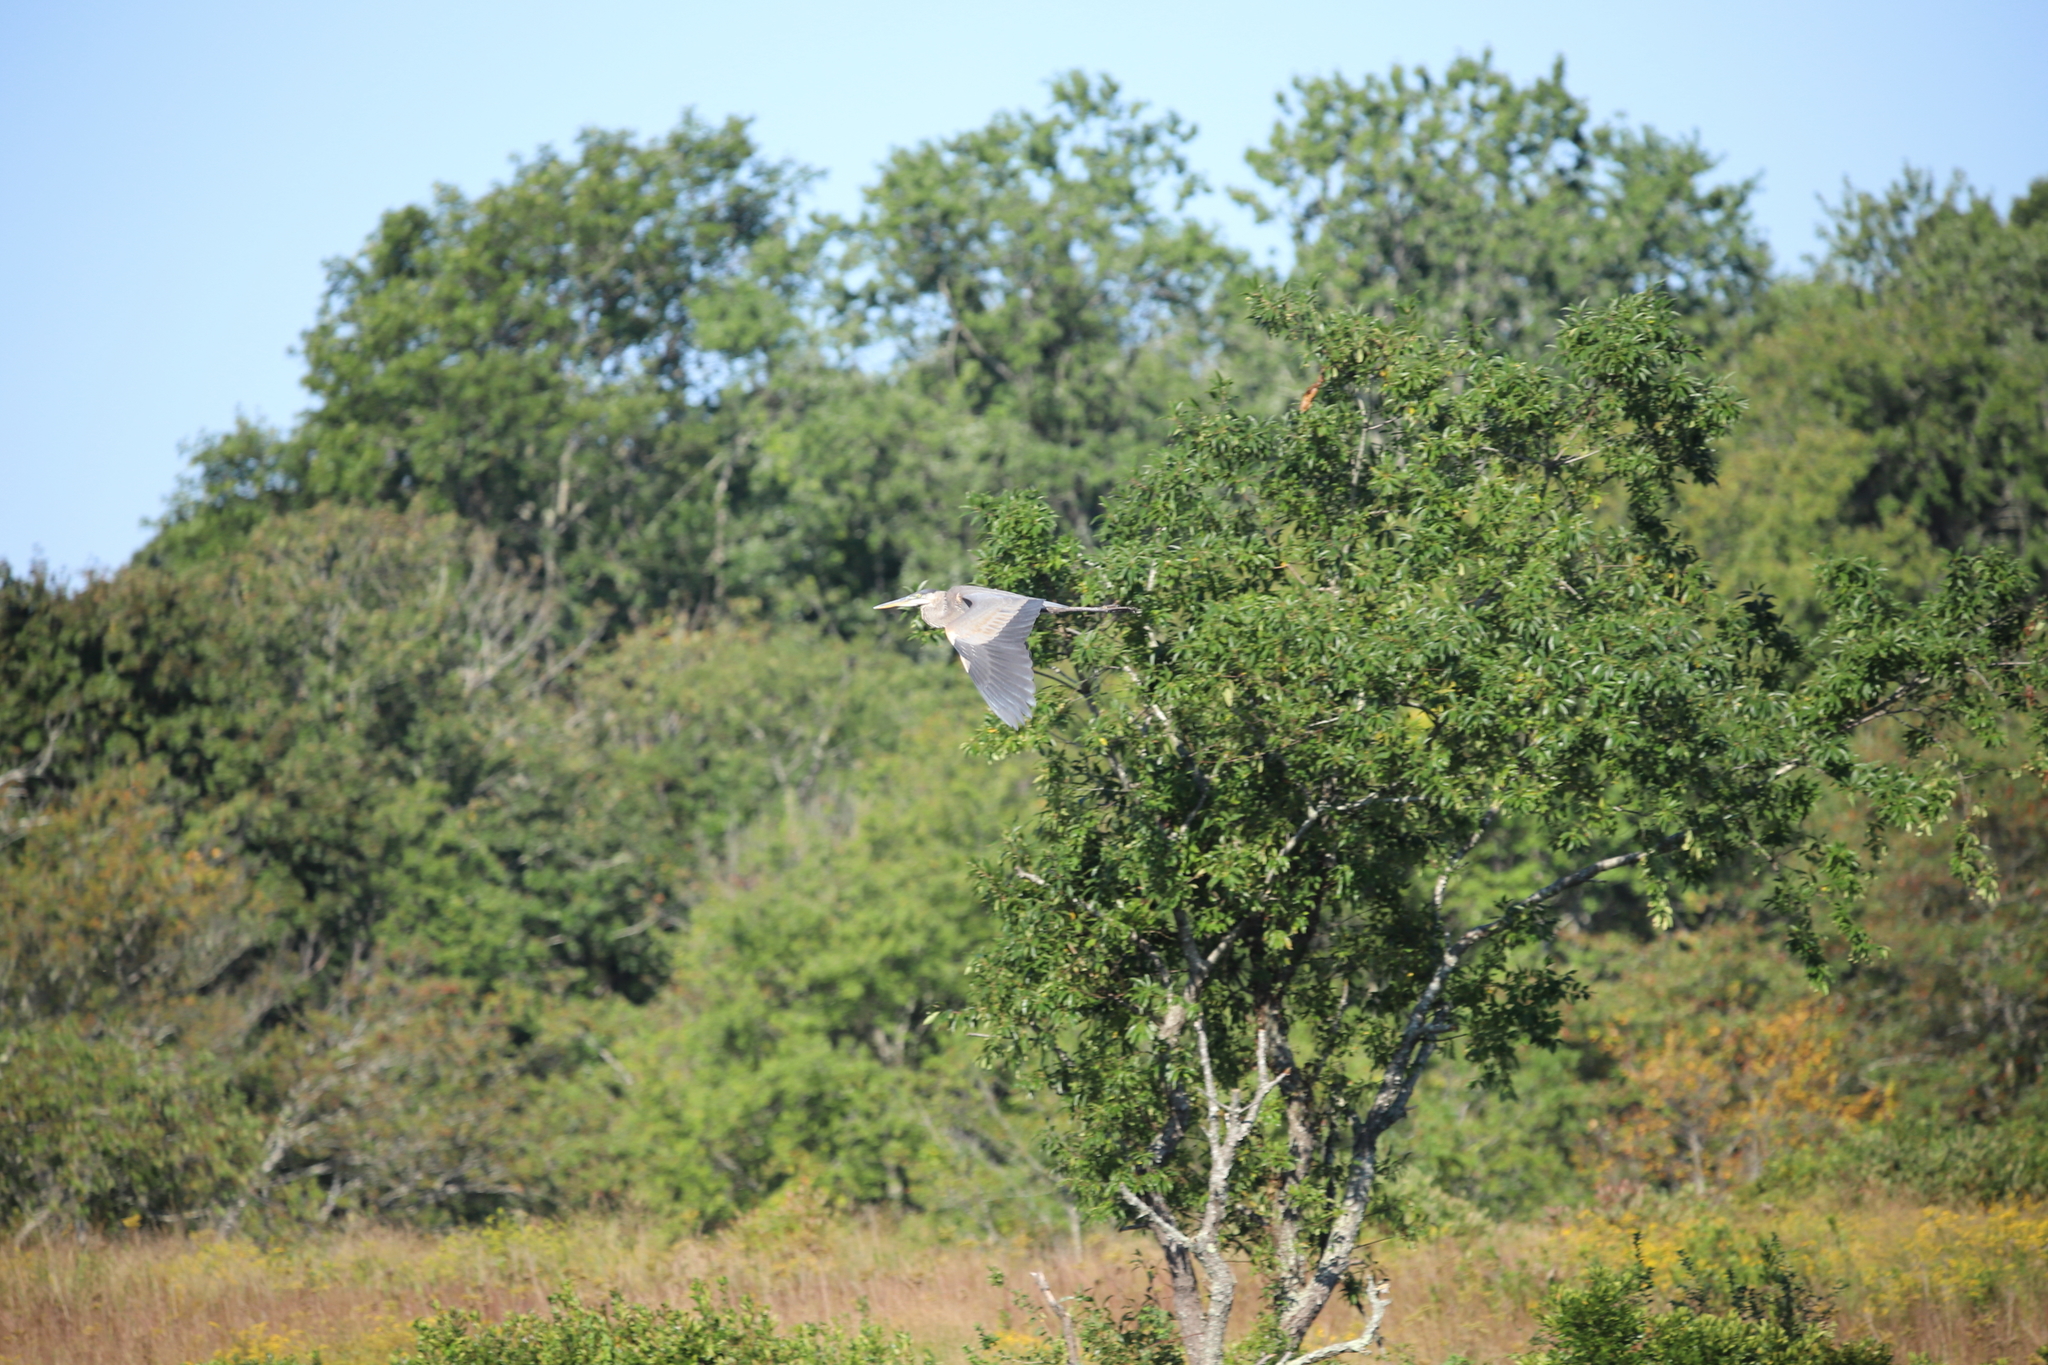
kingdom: Animalia
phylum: Chordata
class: Aves
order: Pelecaniformes
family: Ardeidae
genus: Ardea
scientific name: Ardea herodias
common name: Great blue heron
